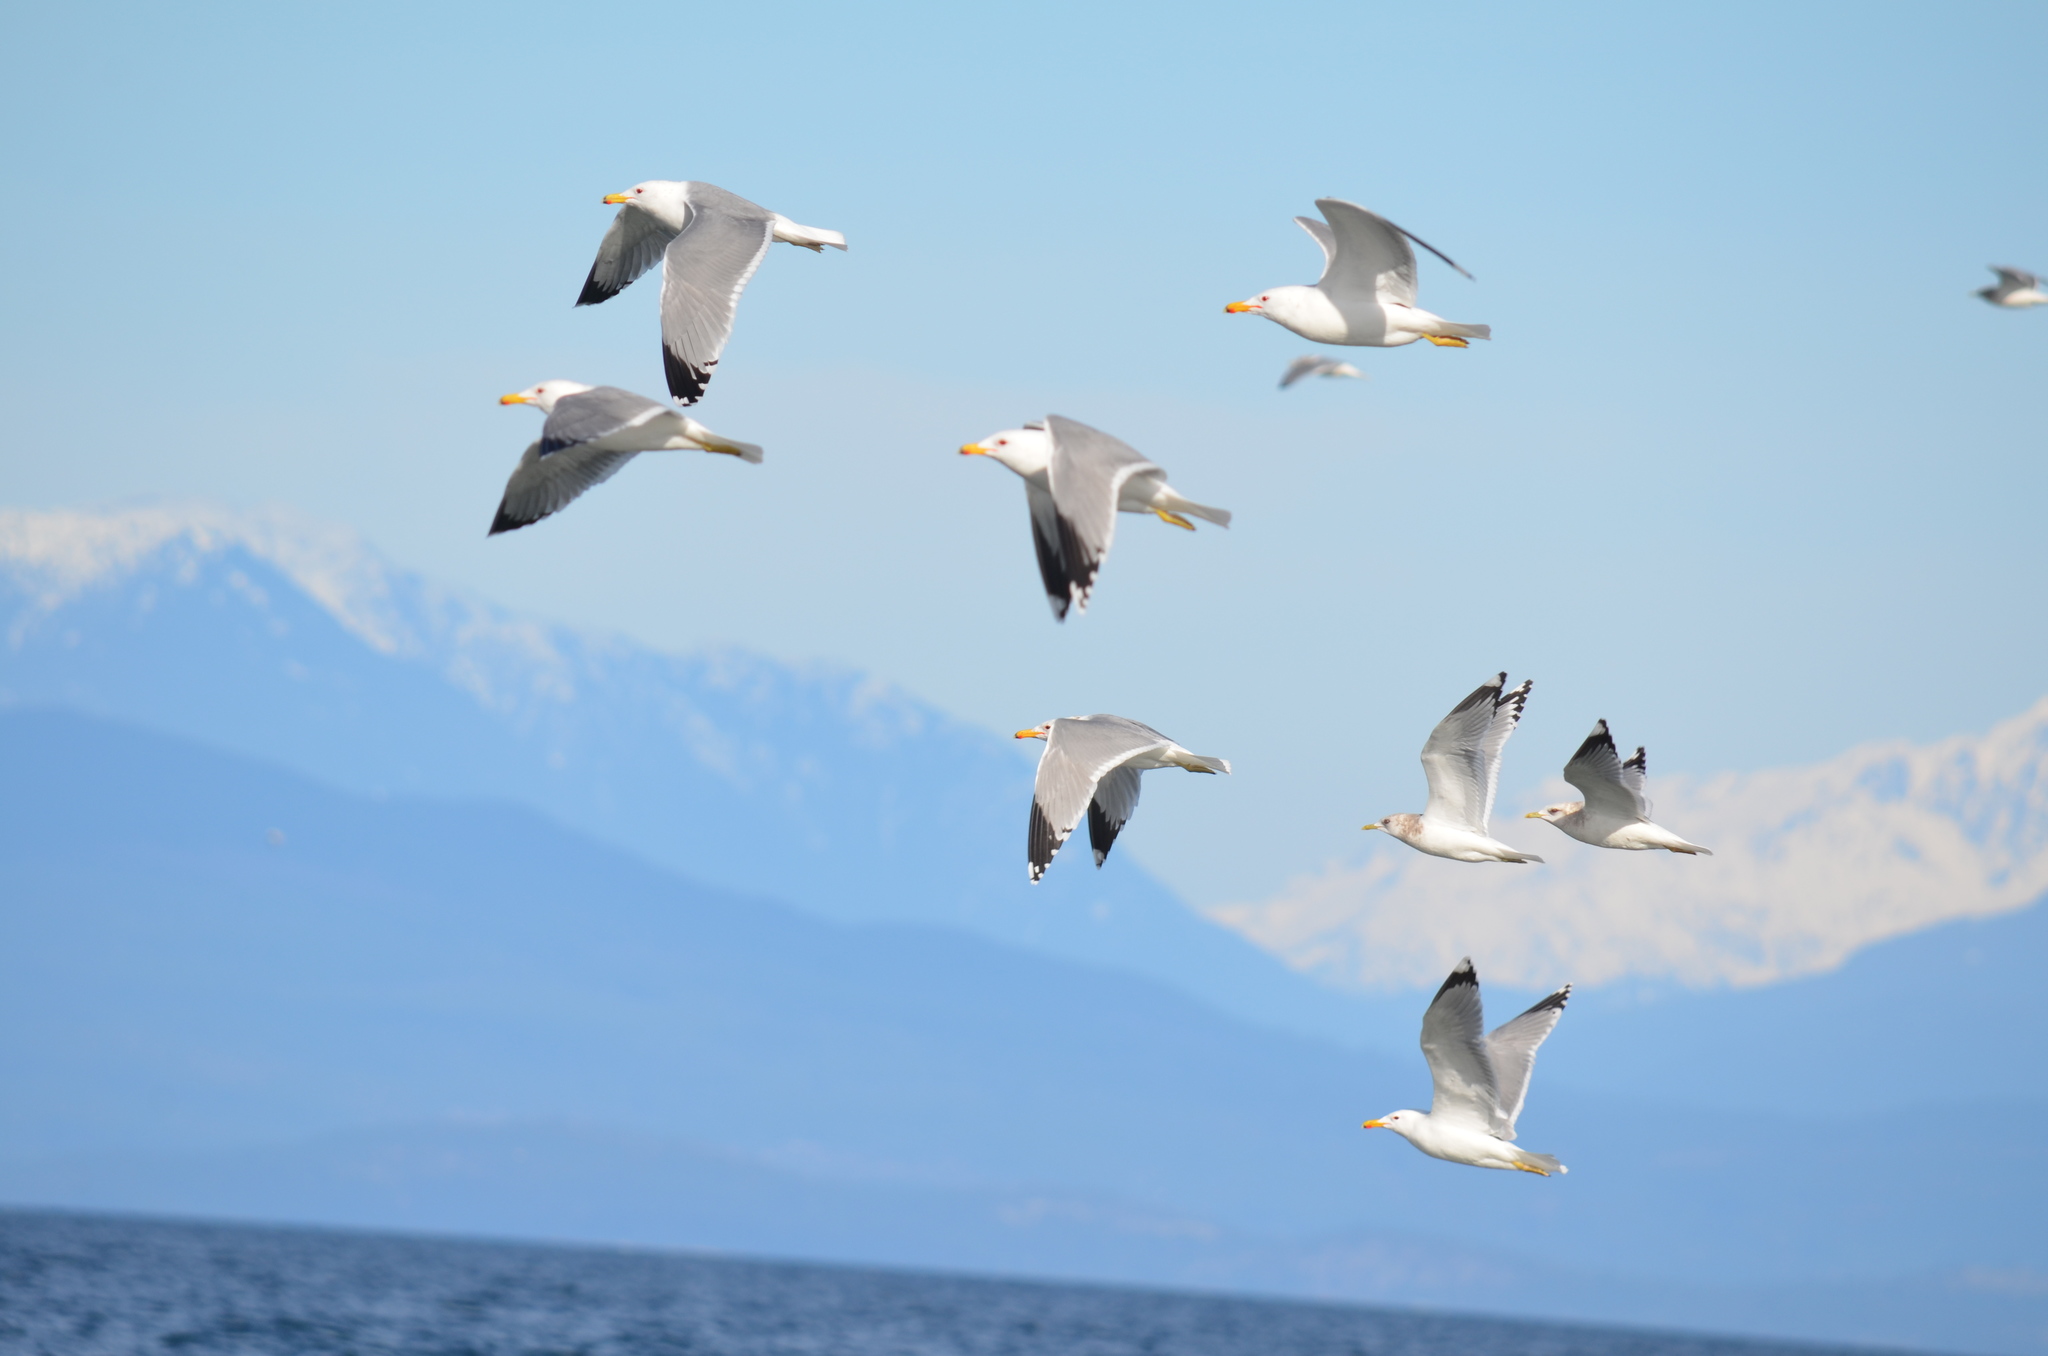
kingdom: Animalia
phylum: Chordata
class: Aves
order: Charadriiformes
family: Laridae
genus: Larus
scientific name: Larus californicus
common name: California gull
